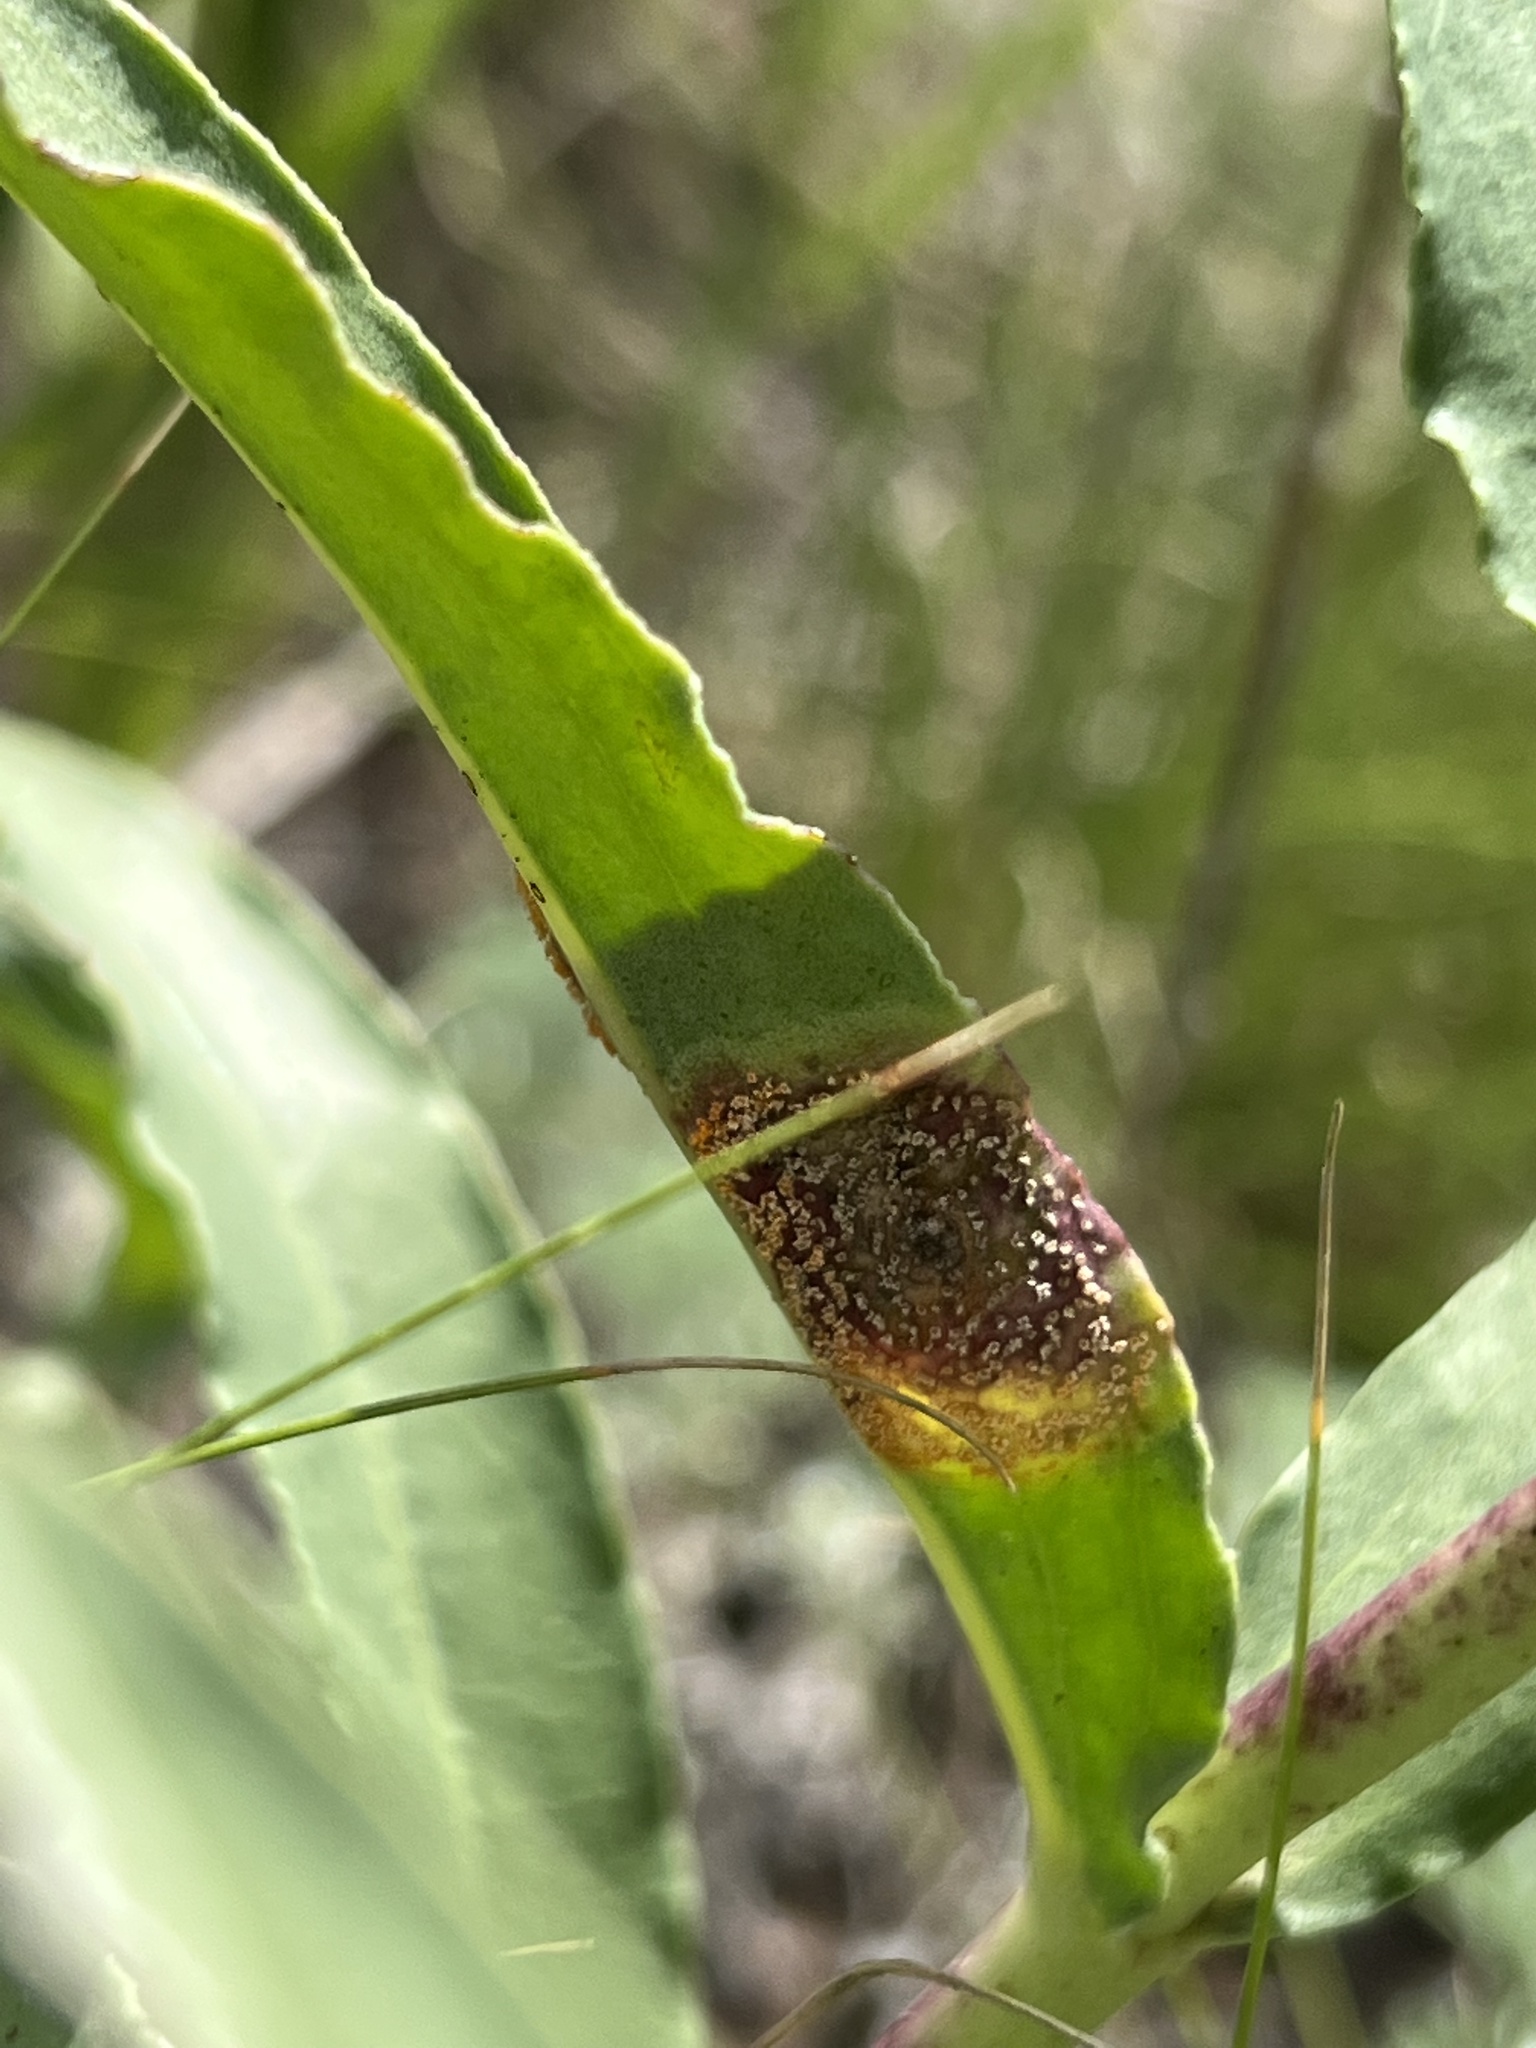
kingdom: Plantae
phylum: Tracheophyta
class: Magnoliopsida
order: Lamiales
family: Plantaginaceae
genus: Penstemon
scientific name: Penstemon glaber
